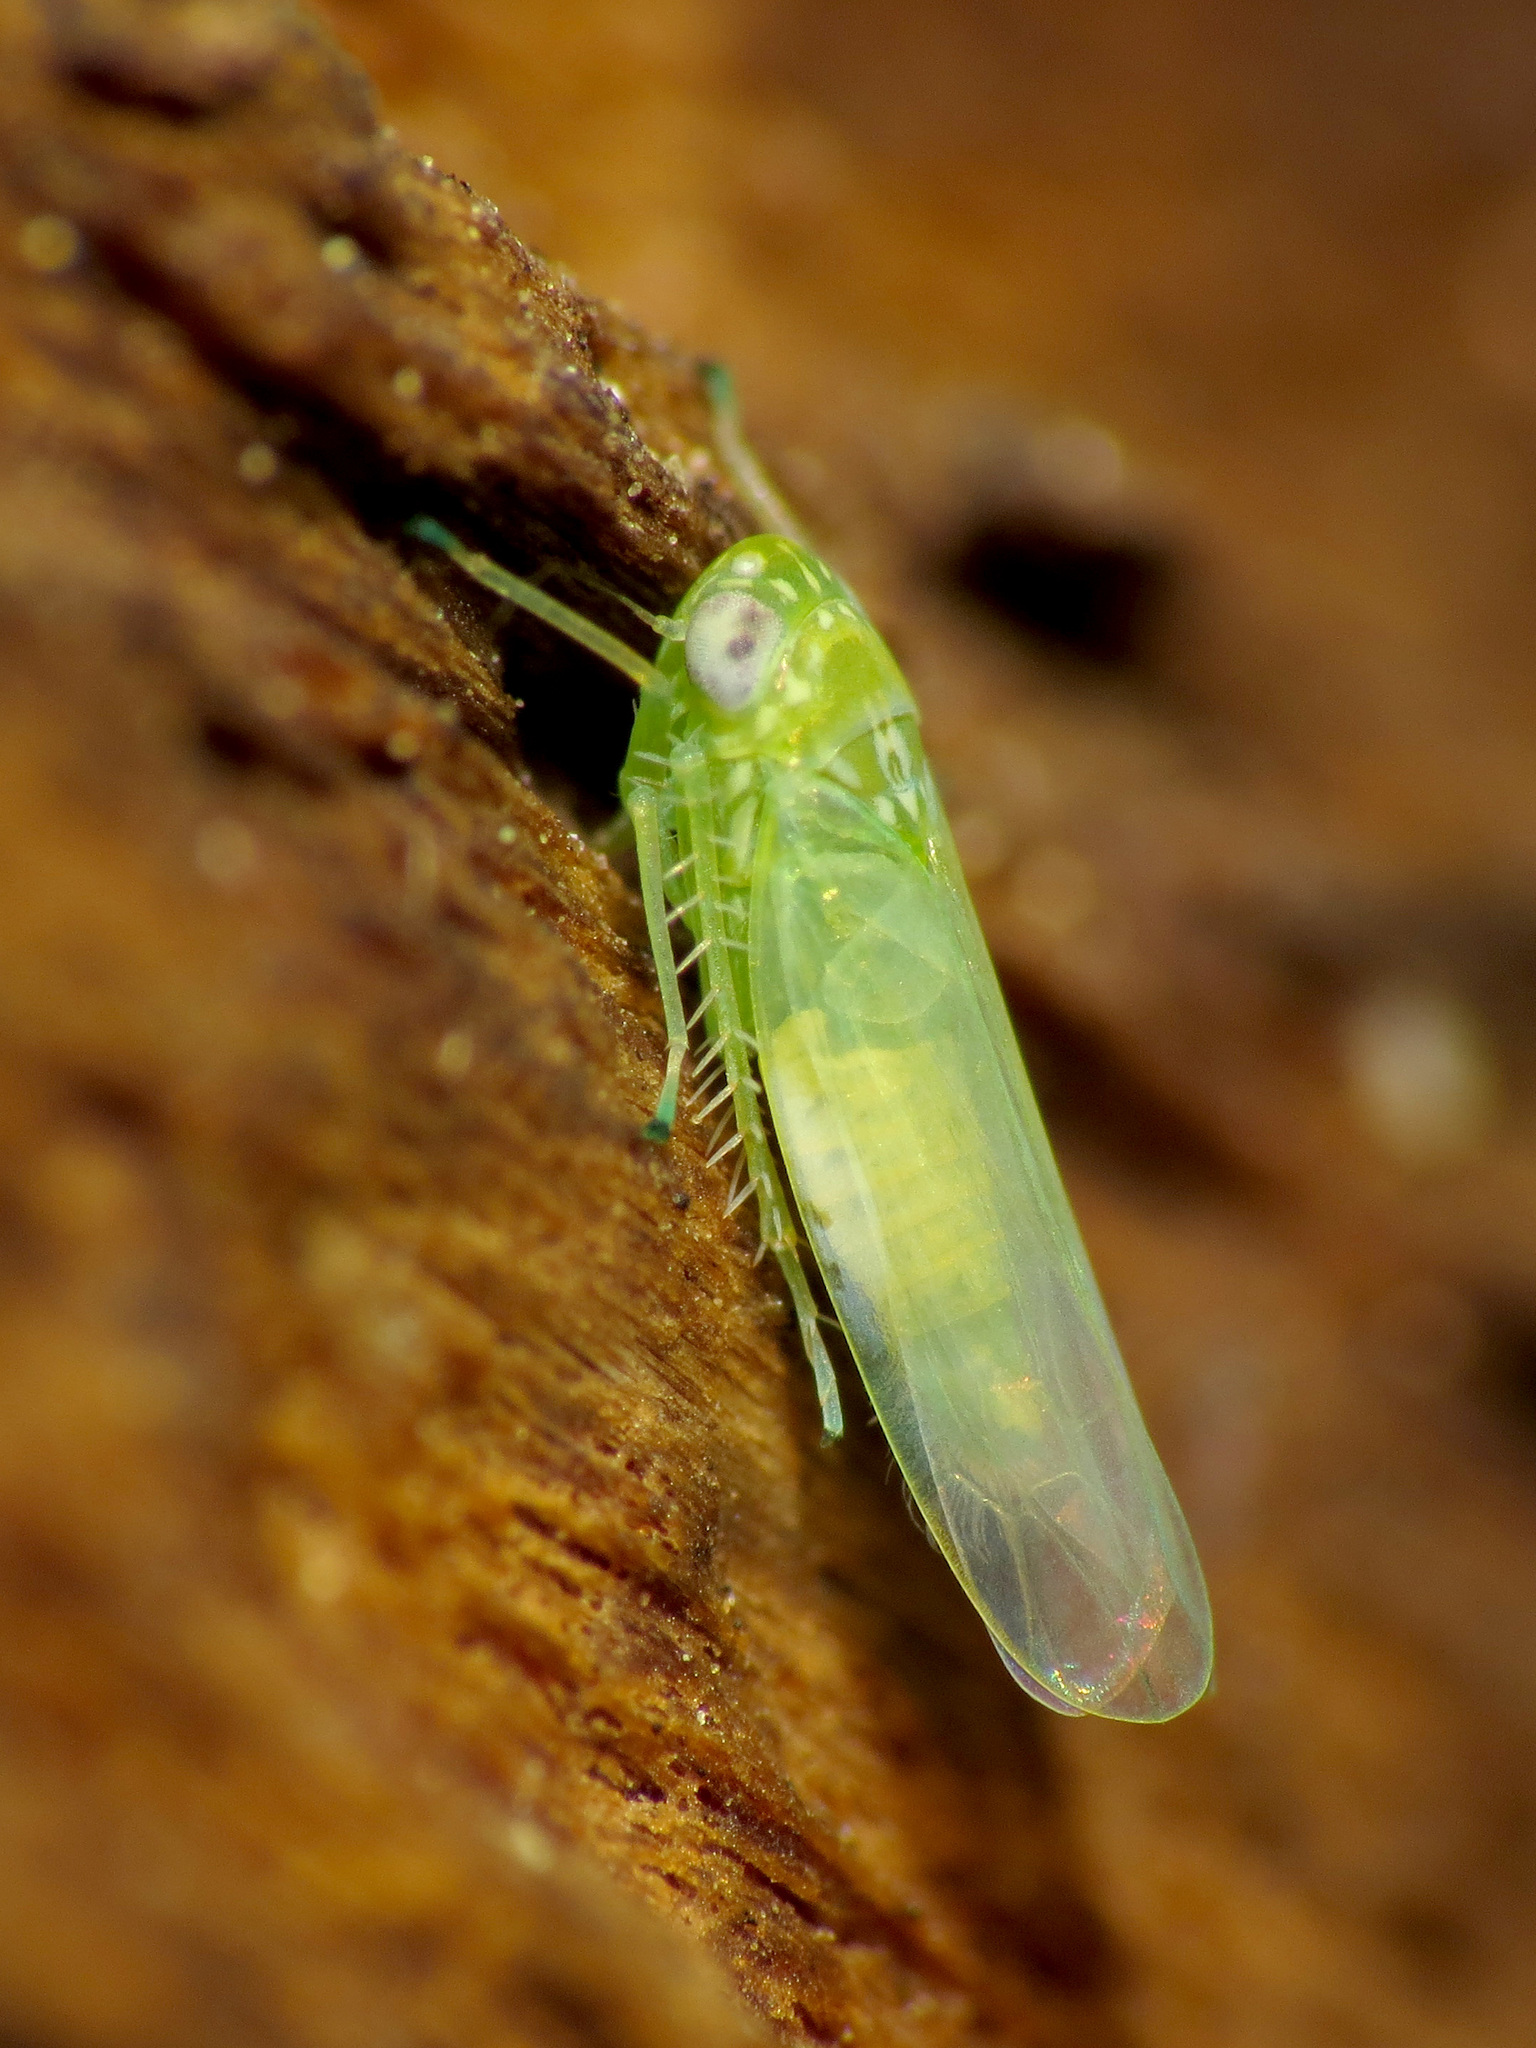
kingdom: Animalia
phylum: Arthropoda
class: Insecta
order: Hemiptera
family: Cicadellidae
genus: Empoasca
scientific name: Empoasca fabae
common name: Potato leafhopper
